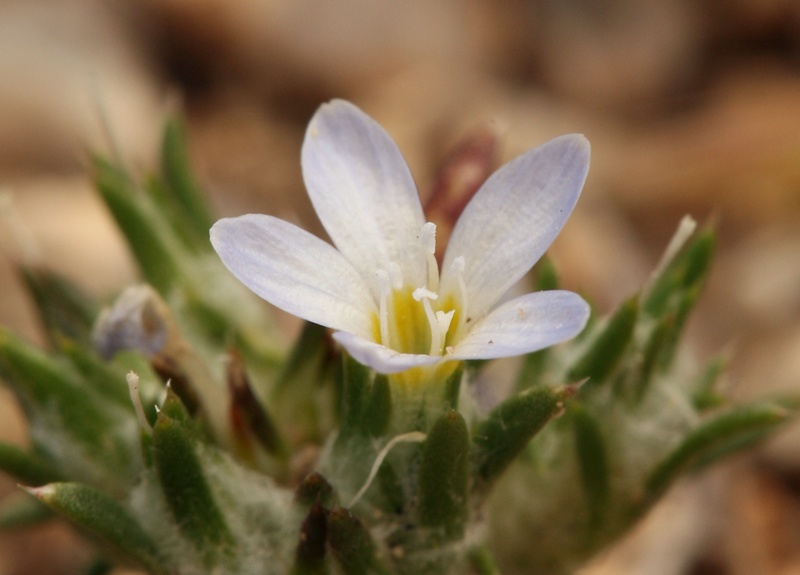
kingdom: Plantae
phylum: Tracheophyta
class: Magnoliopsida
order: Ericales
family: Polemoniaceae
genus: Eriastrum
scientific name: Eriastrum diffusum
